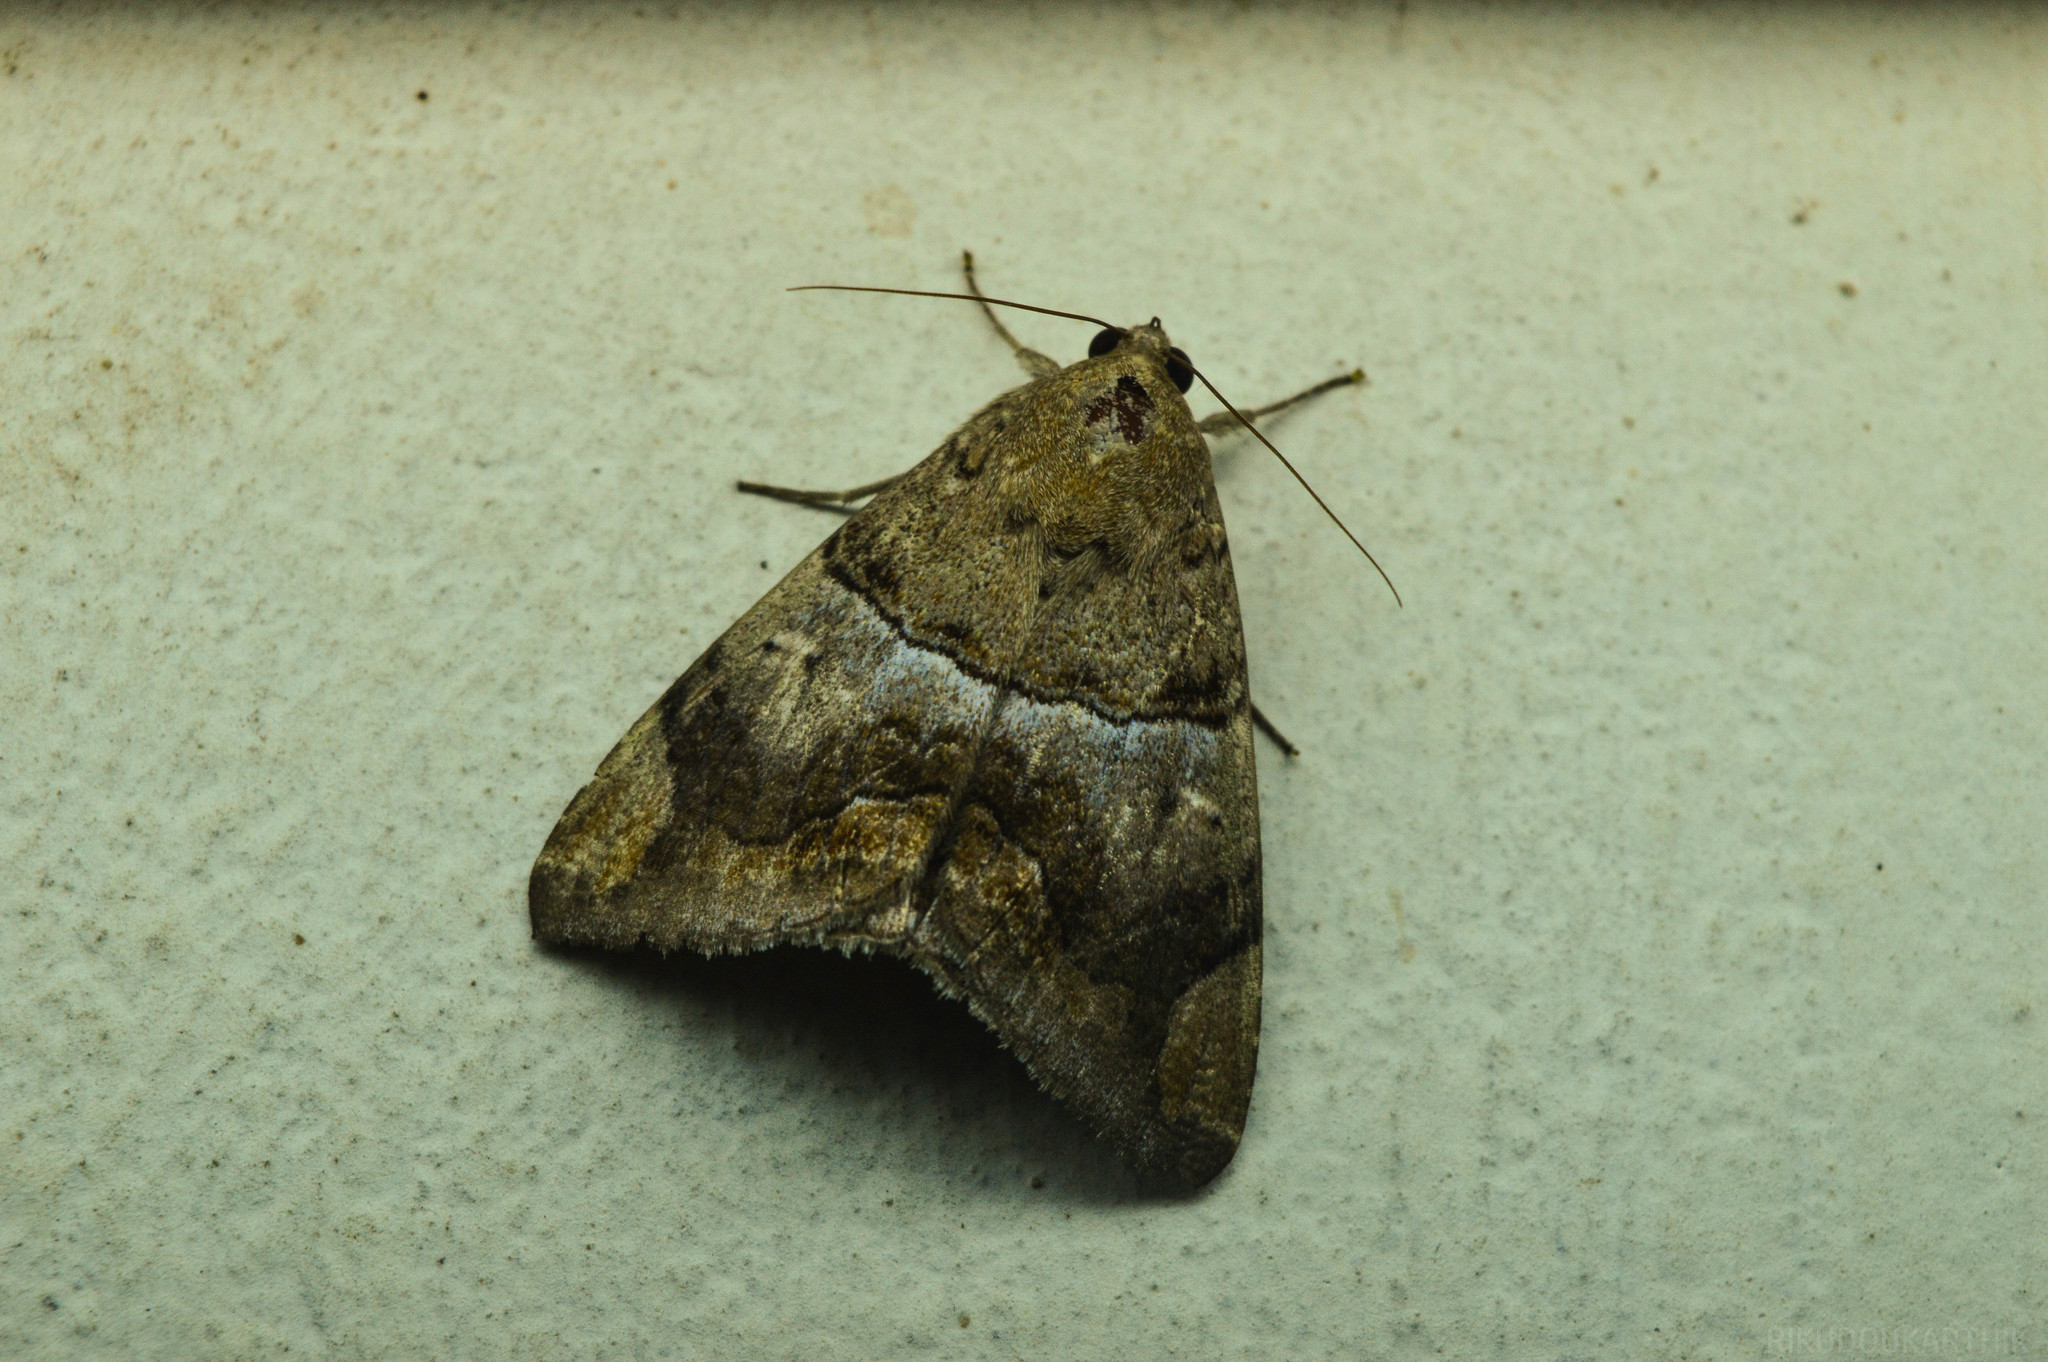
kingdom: Animalia
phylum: Arthropoda
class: Insecta
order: Lepidoptera
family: Erebidae
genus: Achaea
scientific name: Achaea janata
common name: Croton caterpillar
